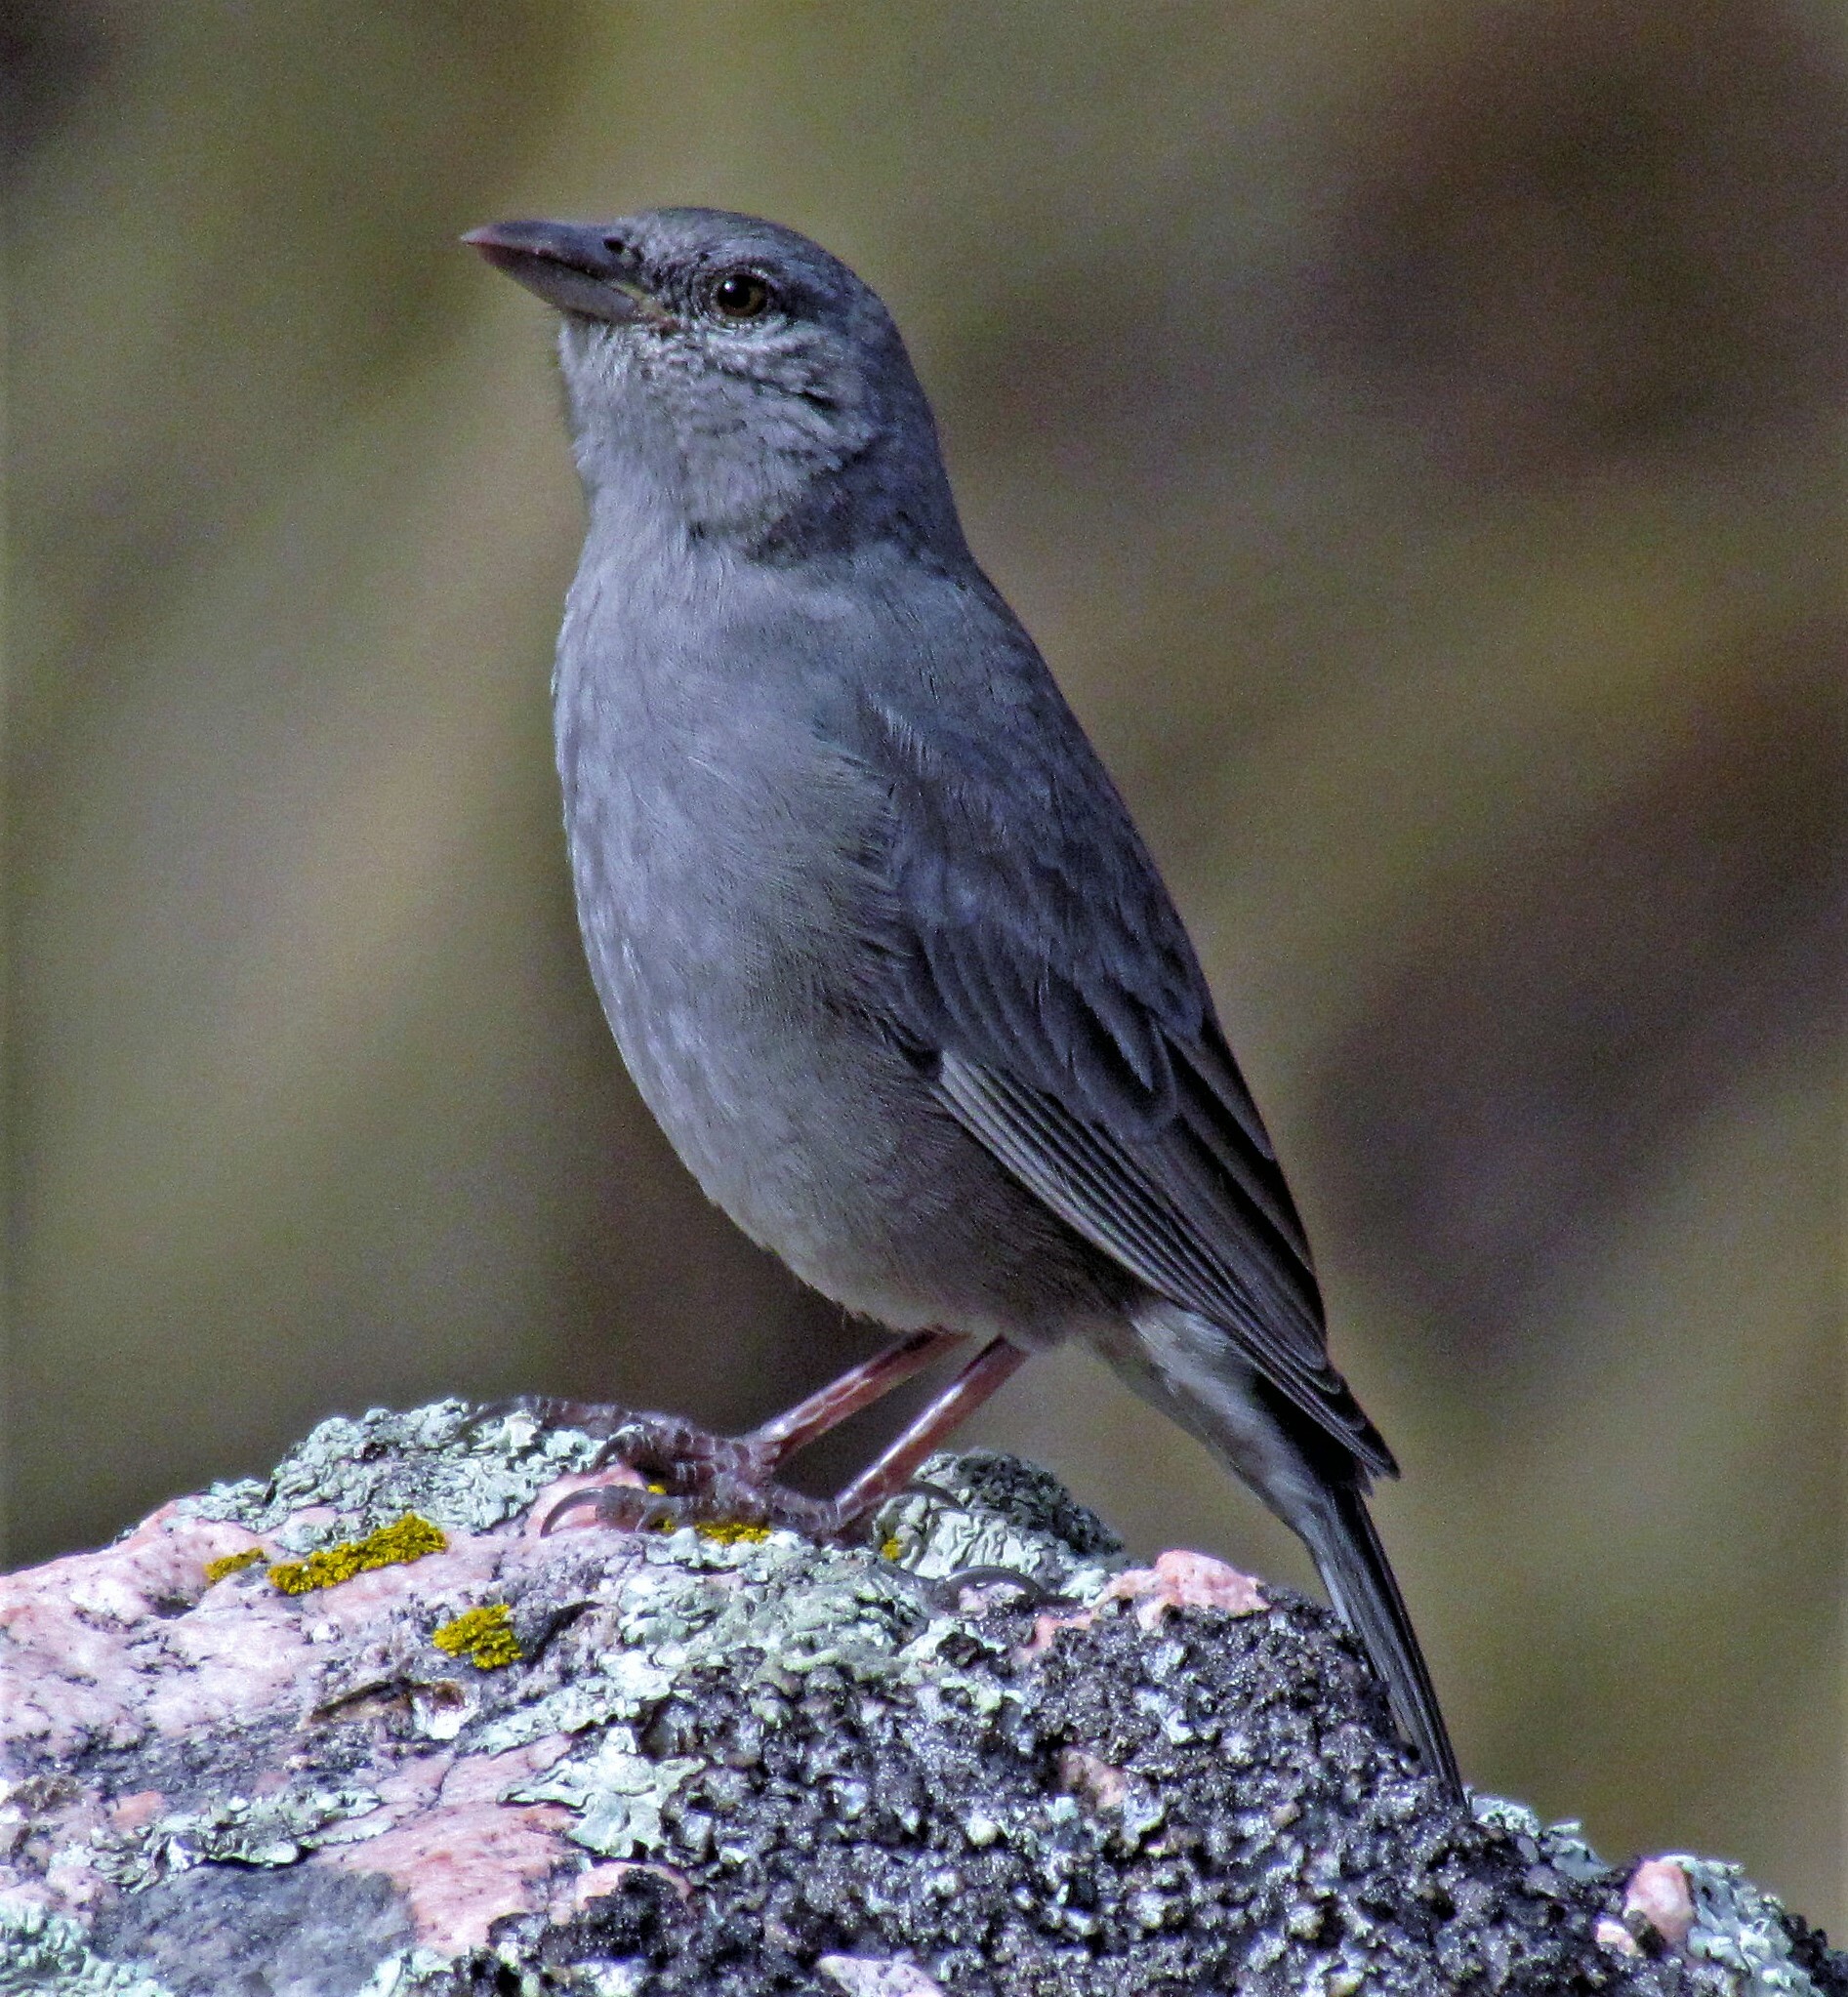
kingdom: Animalia
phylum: Chordata
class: Aves
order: Passeriformes
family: Thraupidae
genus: Idiopsar
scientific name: Idiopsar brachyurus
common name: Short-tailed finch
